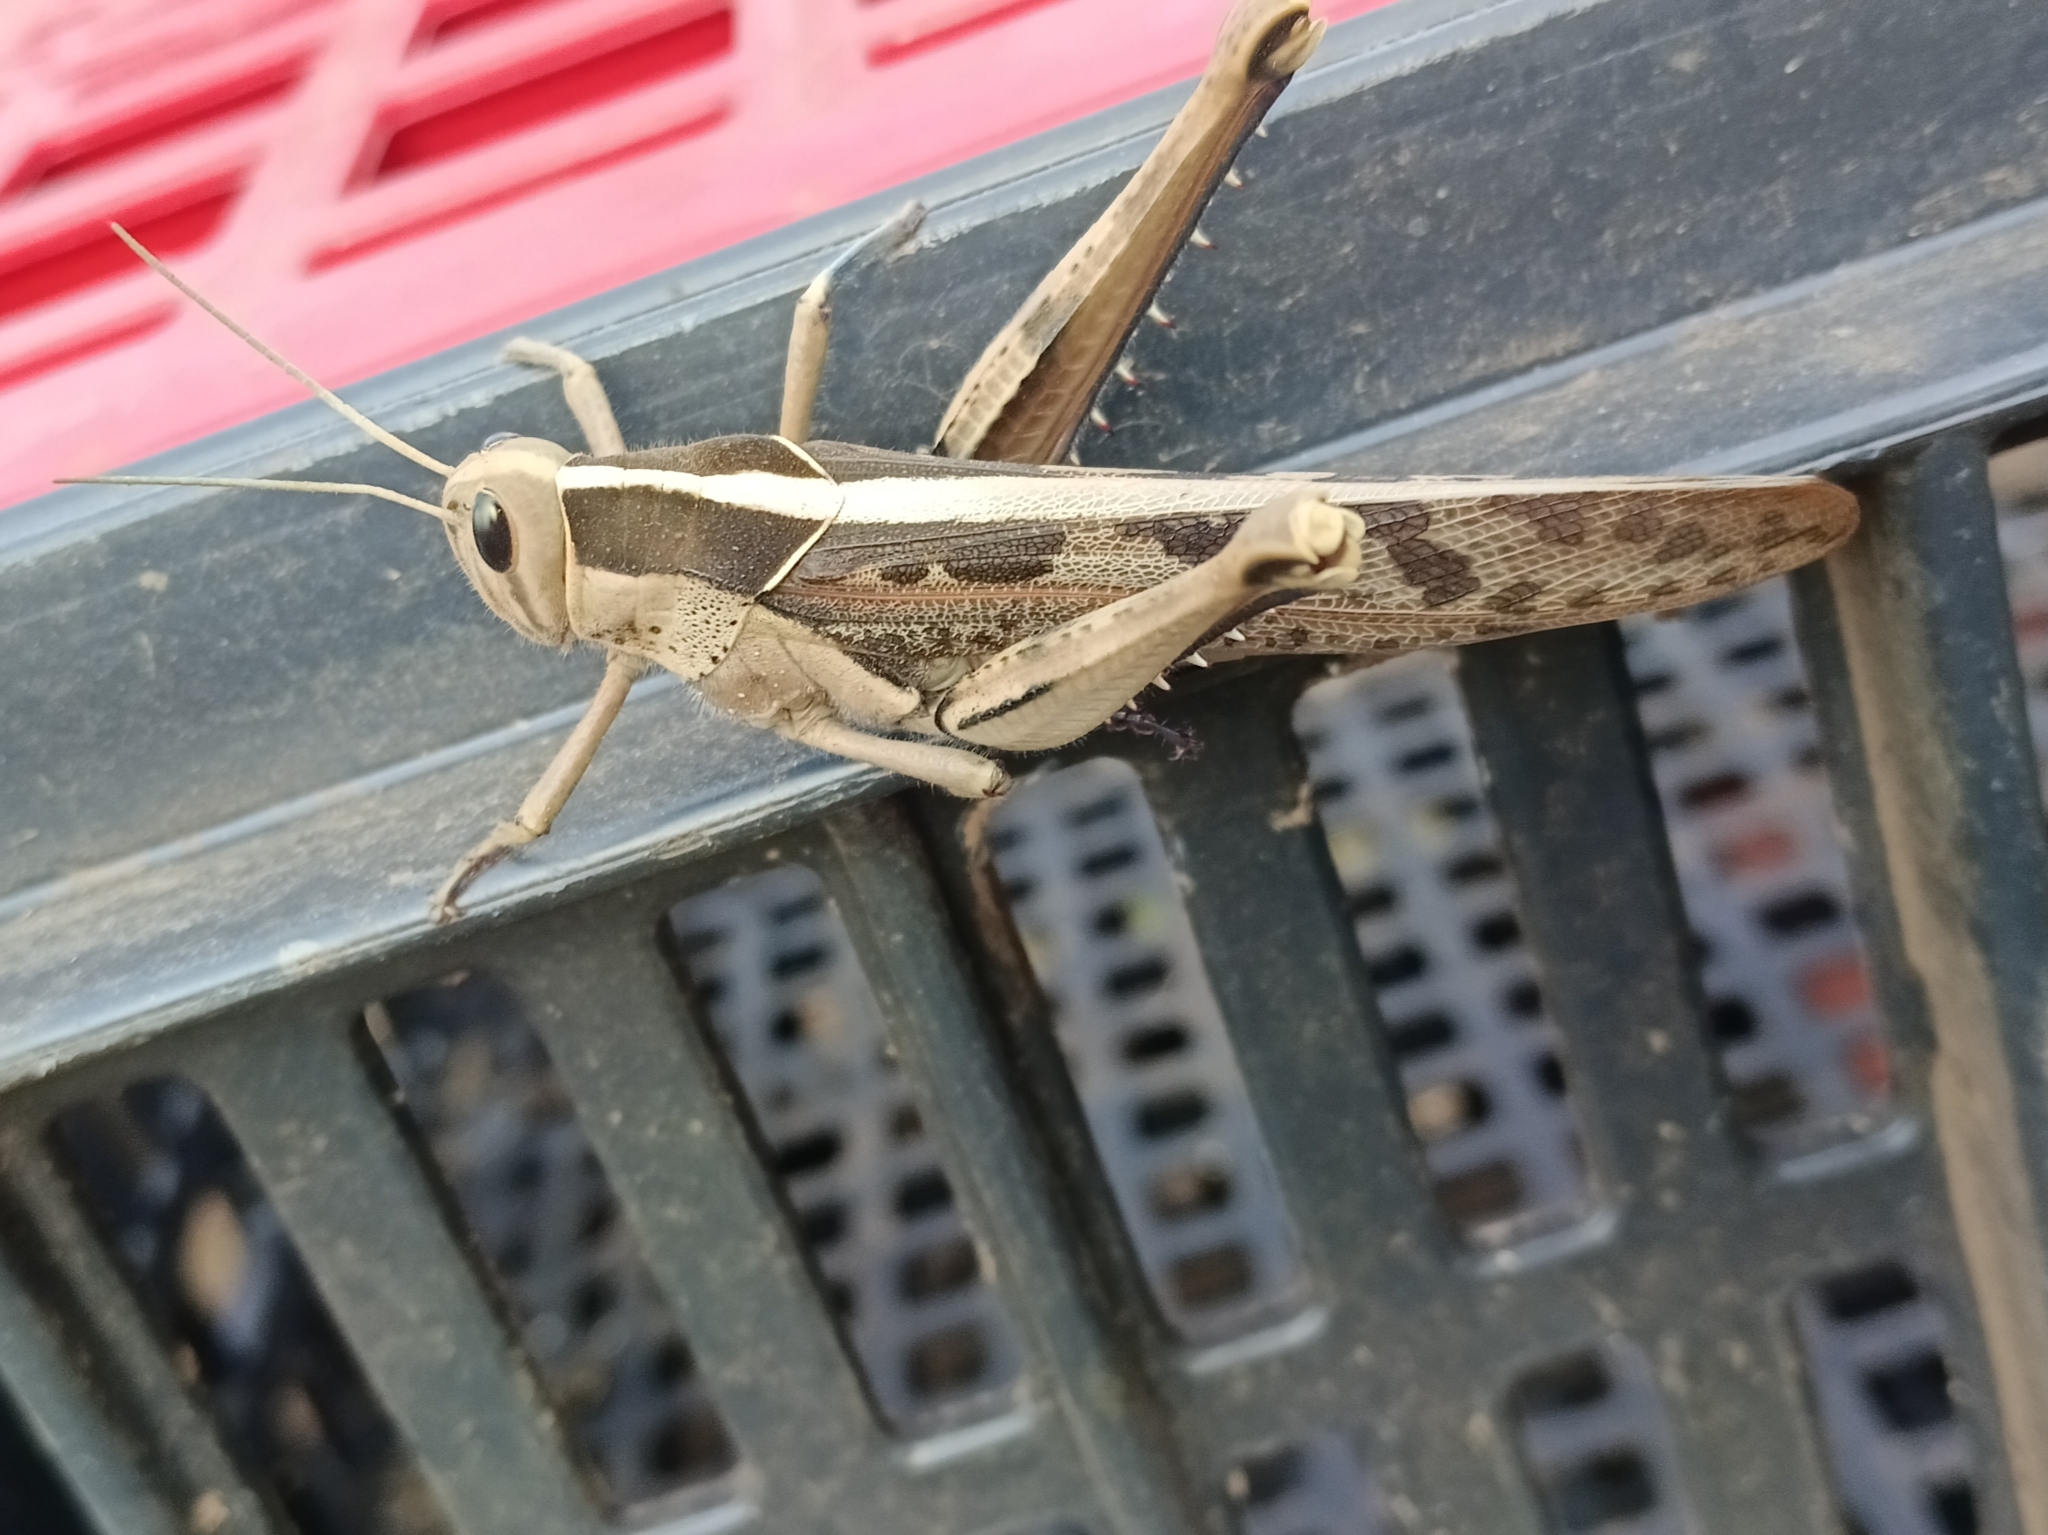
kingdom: Animalia
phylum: Arthropoda
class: Insecta
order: Orthoptera
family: Acrididae
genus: Acanthacris
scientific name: Acanthacris ruficornis
